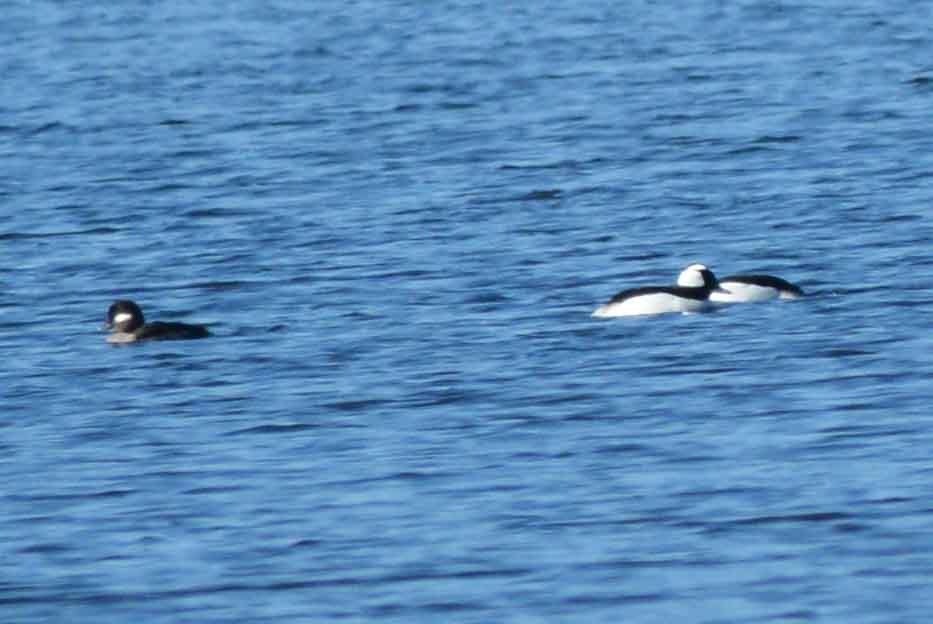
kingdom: Animalia
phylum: Chordata
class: Aves
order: Anseriformes
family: Anatidae
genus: Bucephala
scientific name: Bucephala albeola
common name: Bufflehead
